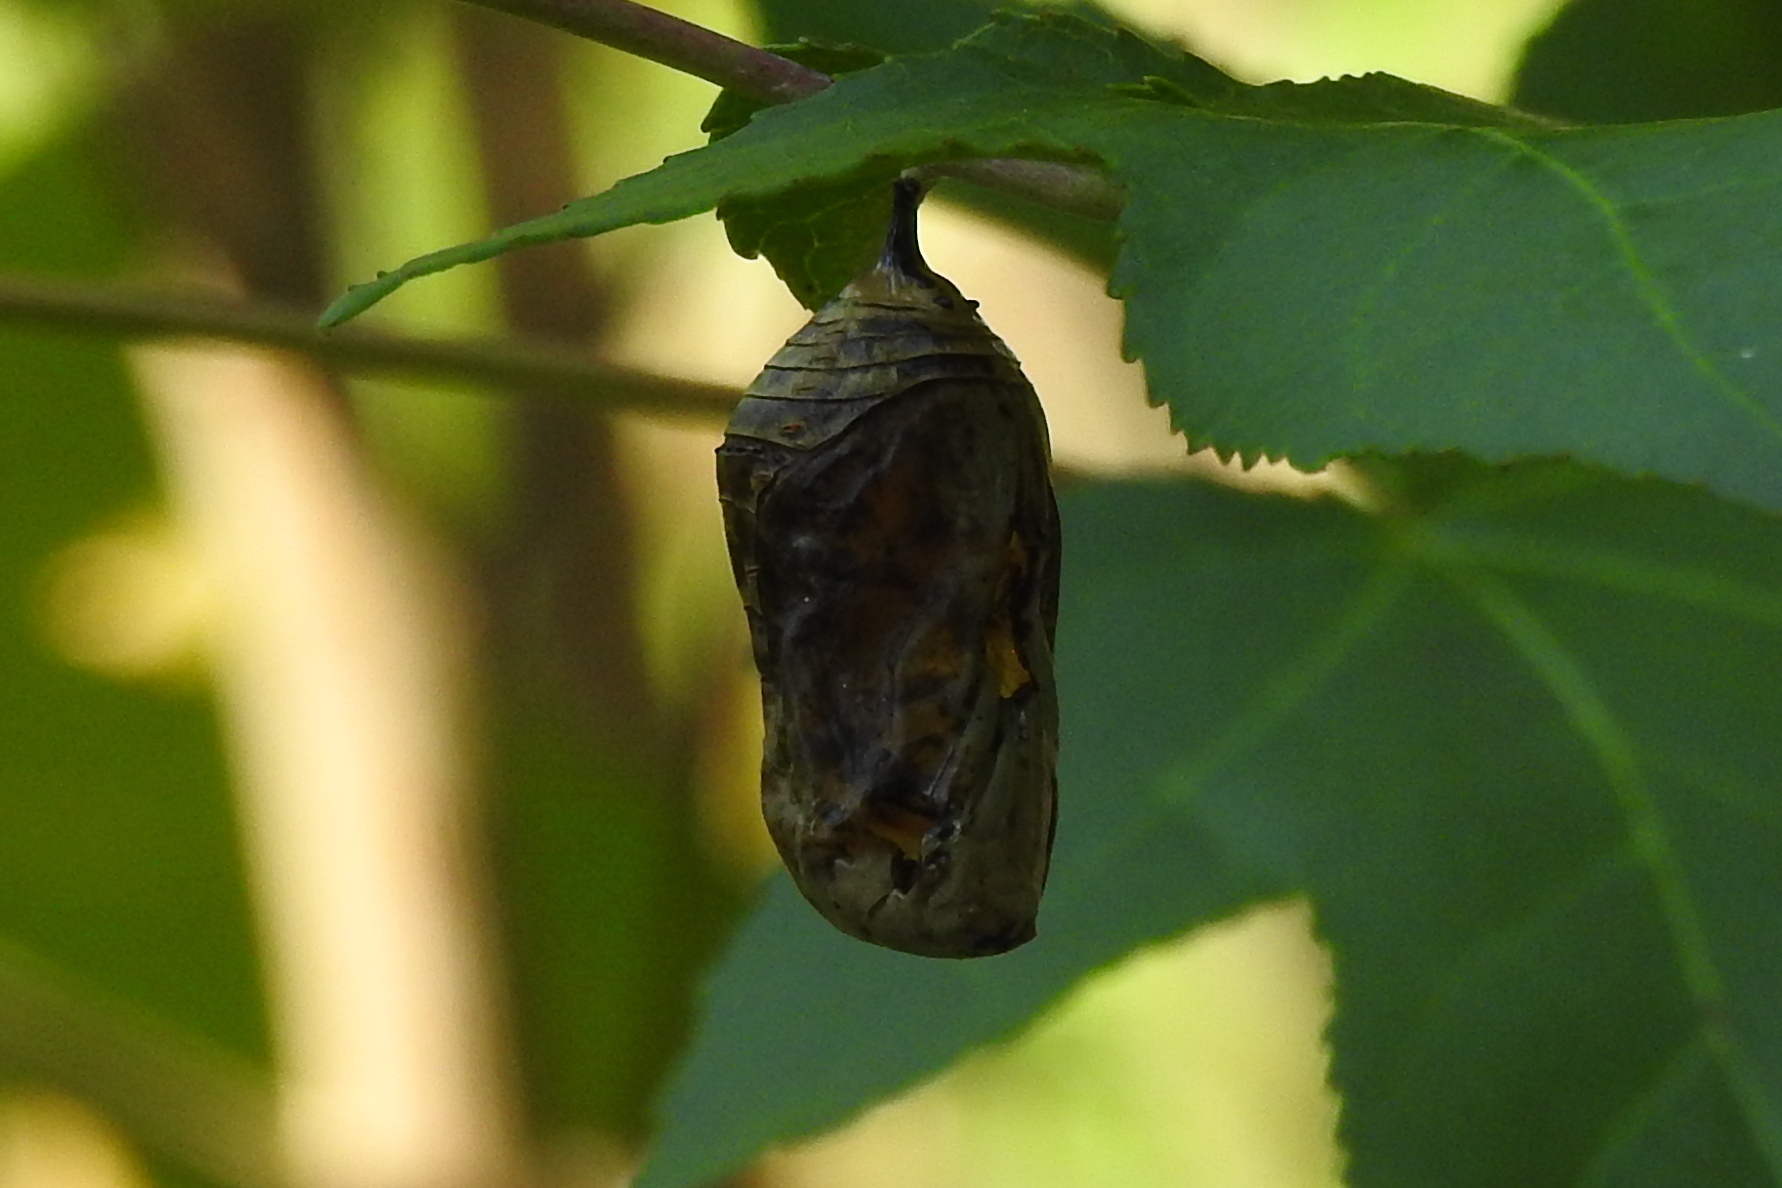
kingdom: Animalia
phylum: Arthropoda
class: Insecta
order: Lepidoptera
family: Nymphalidae
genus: Danaus
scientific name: Danaus plexippus
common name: Monarch
